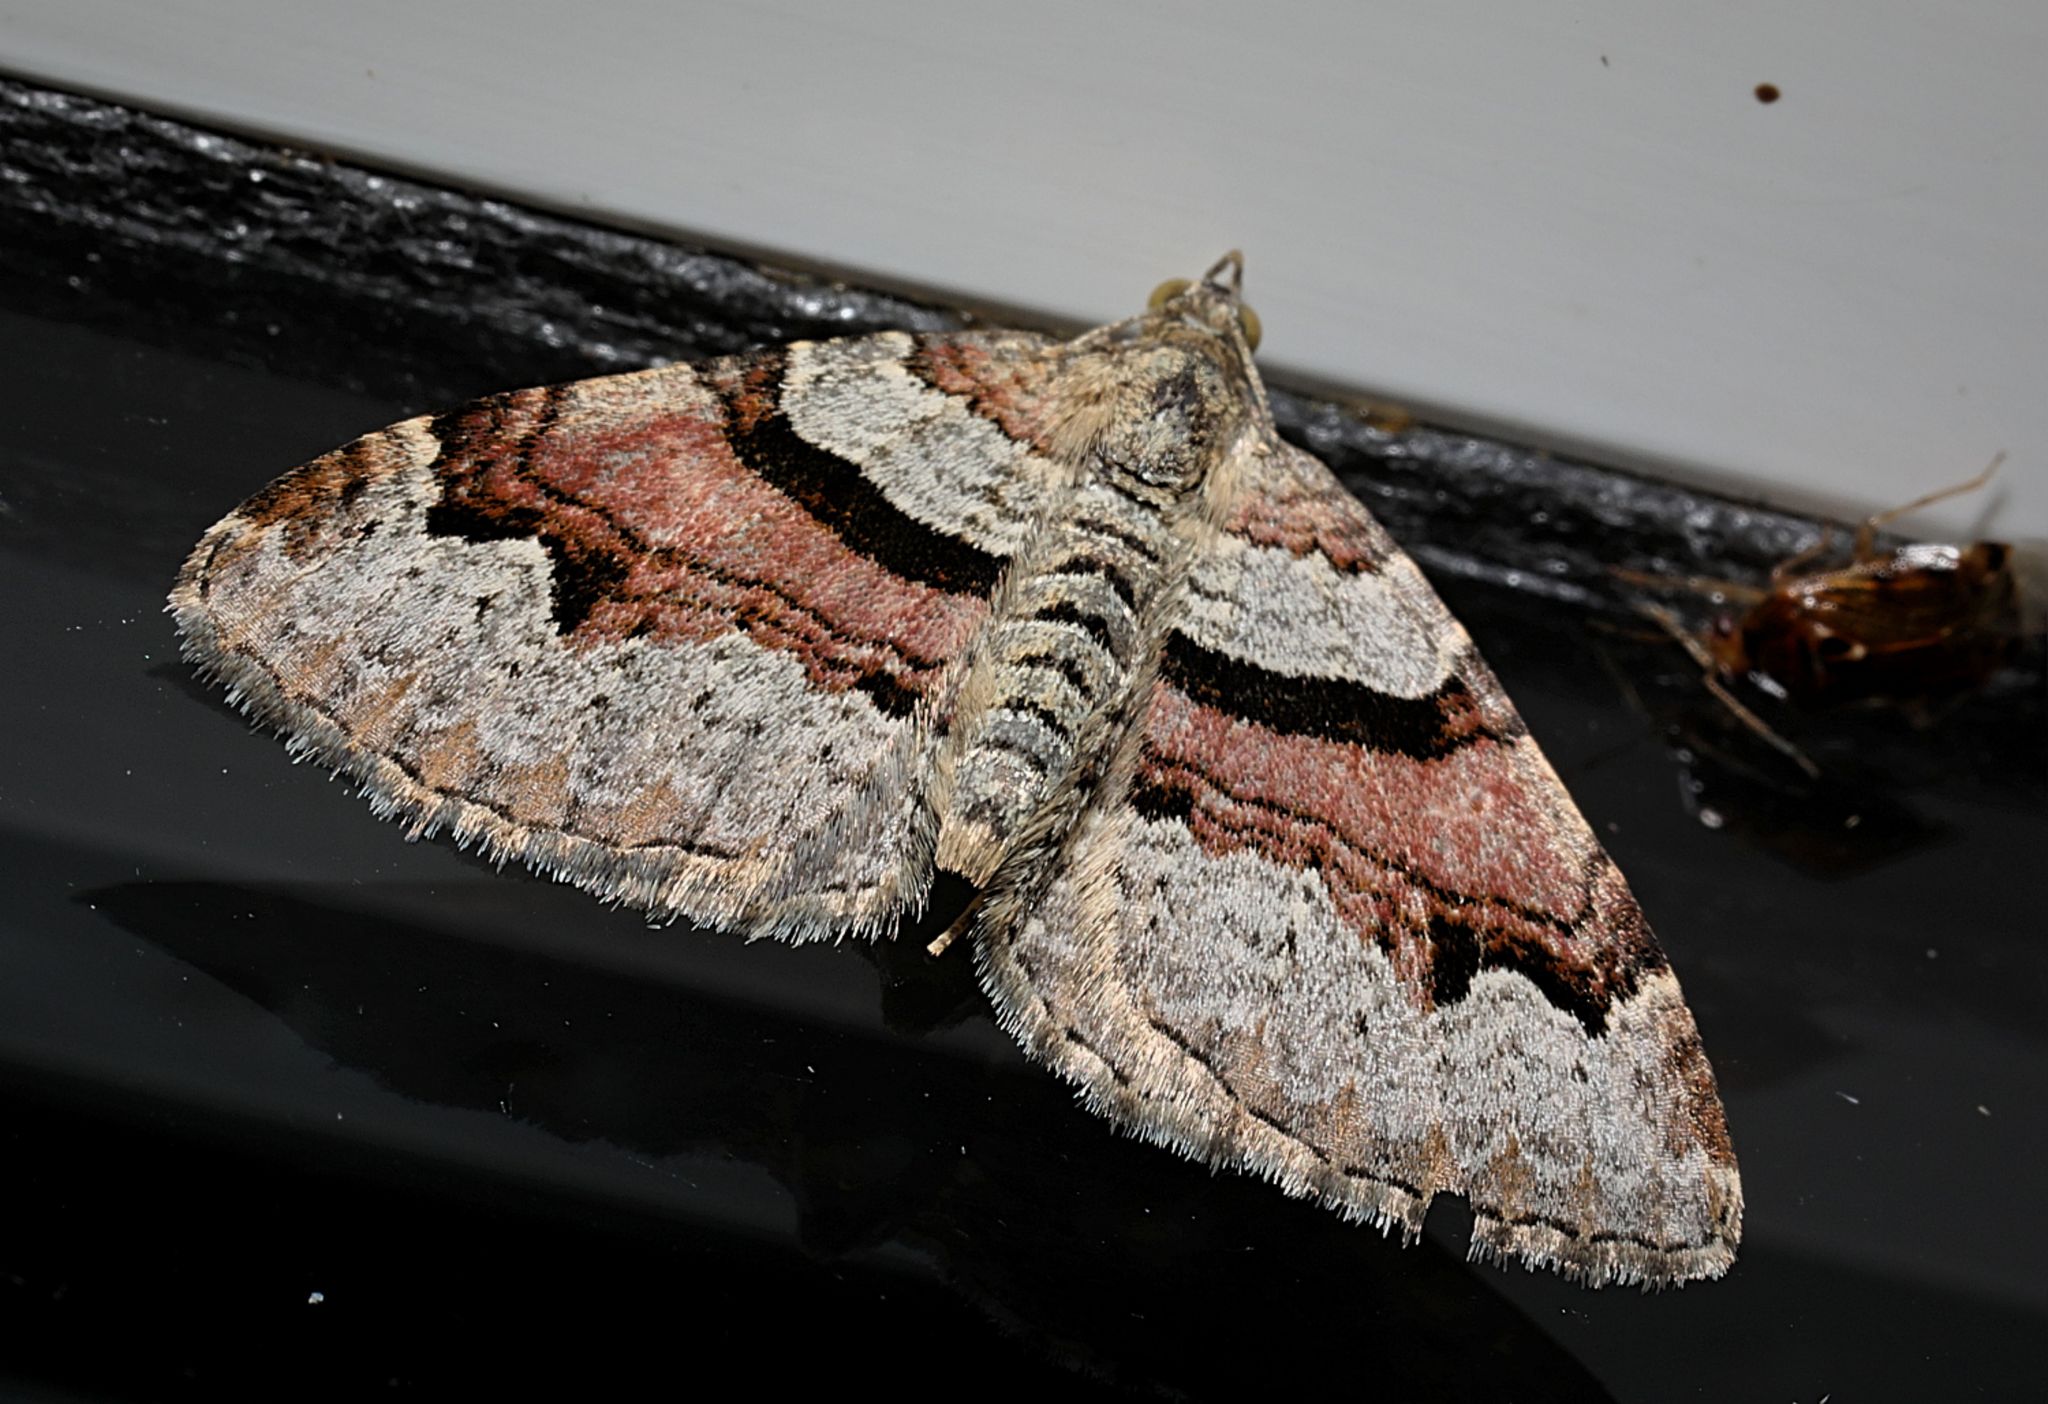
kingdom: Animalia
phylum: Arthropoda
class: Insecta
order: Lepidoptera
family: Geometridae
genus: Xanthorhoe
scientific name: Xanthorhoe designata
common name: Flame carpet
